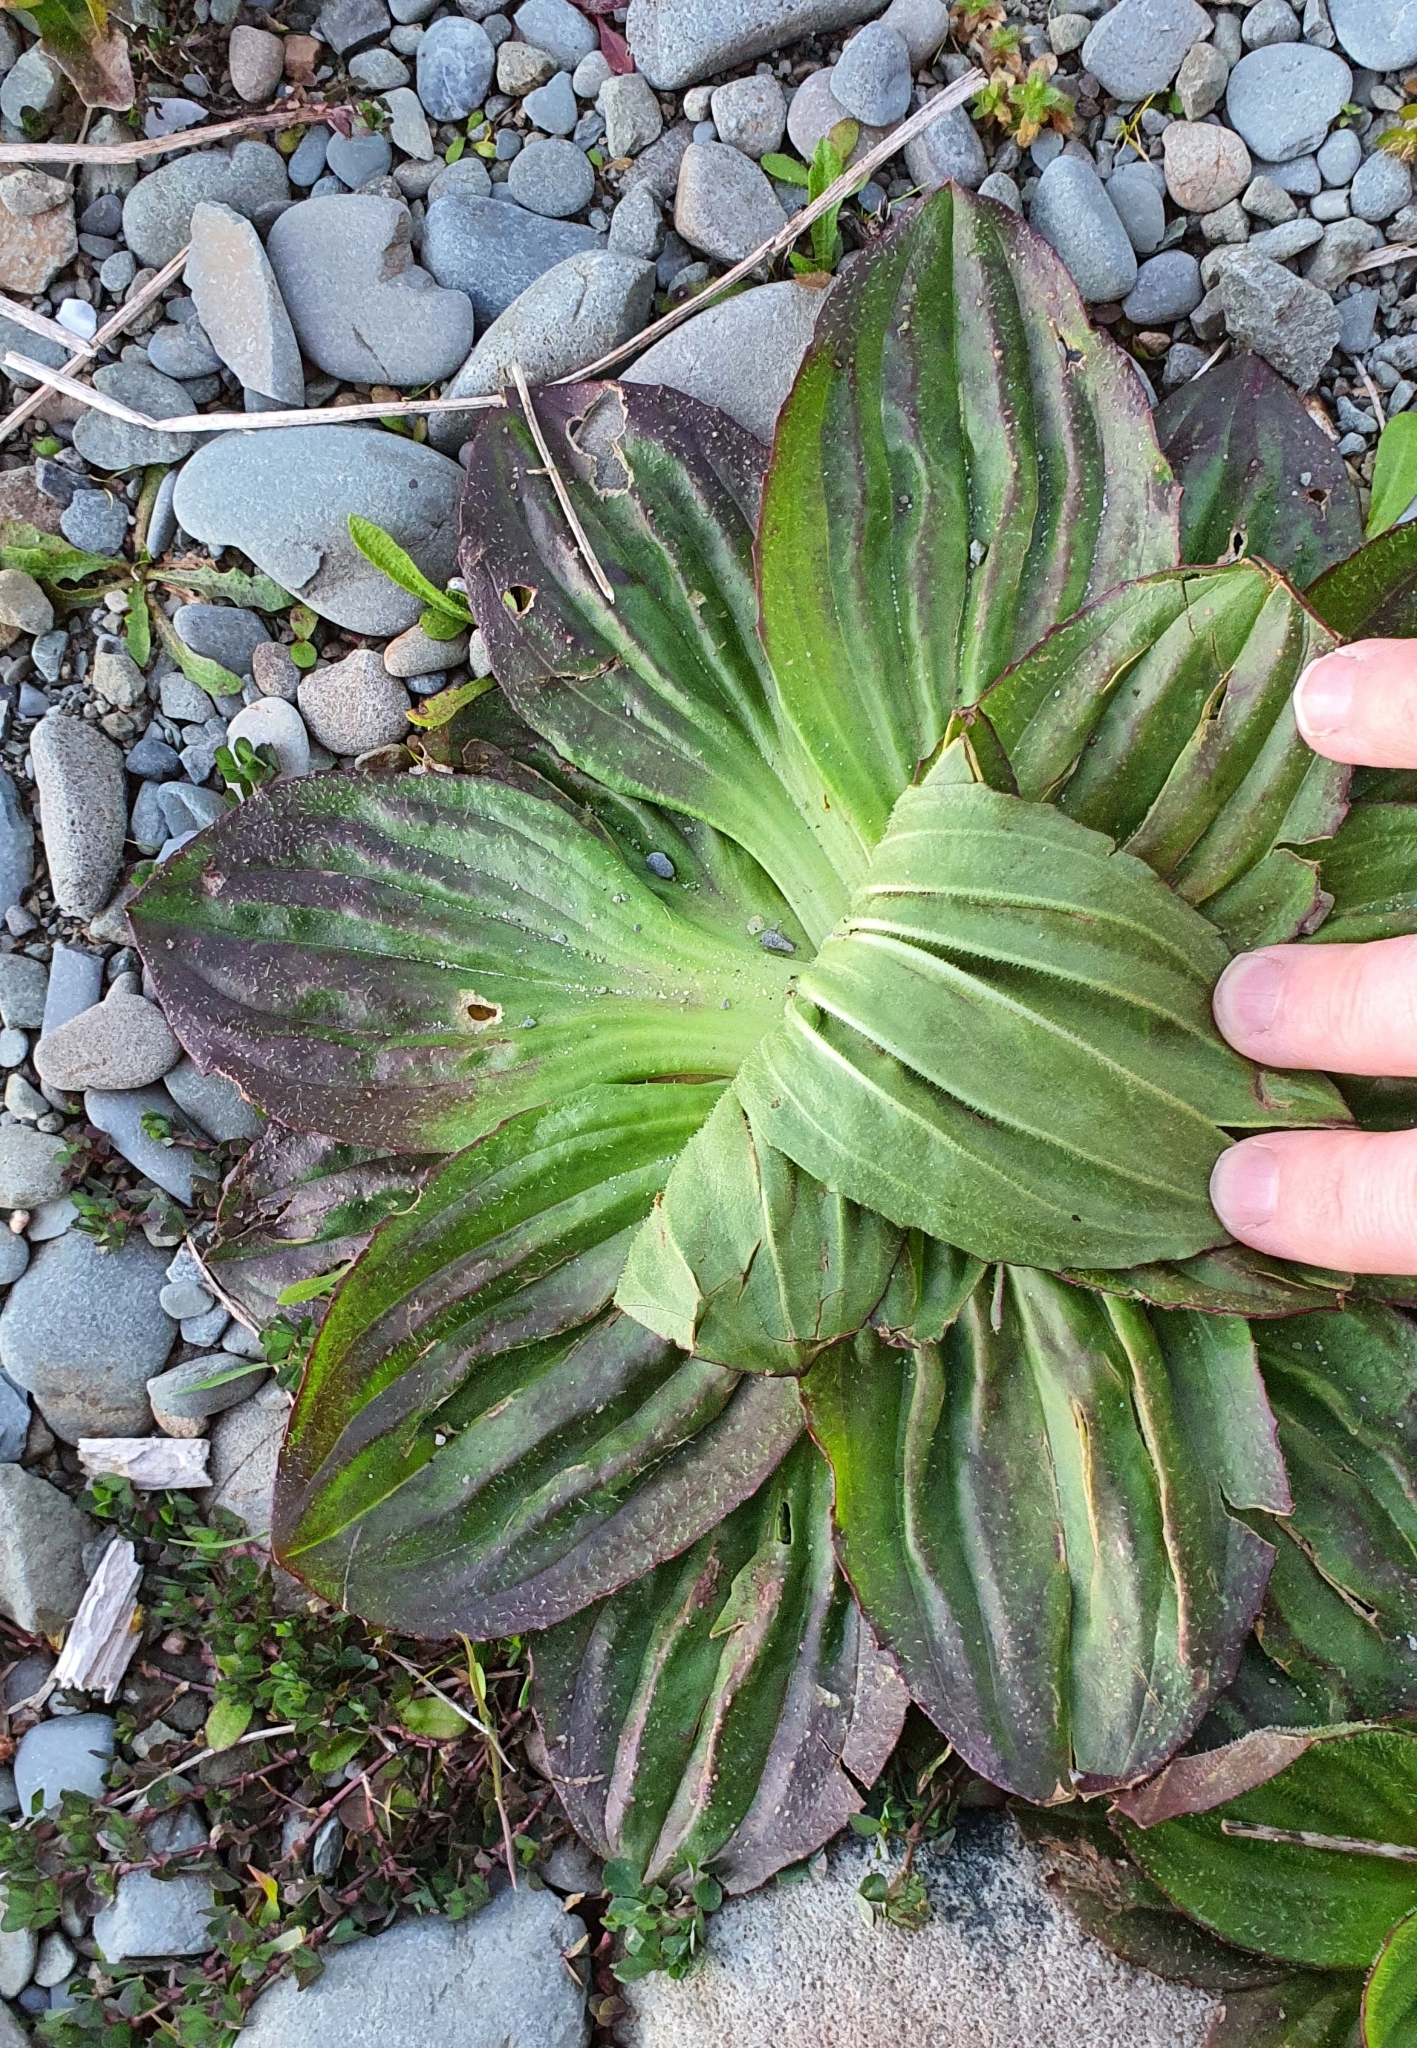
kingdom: Plantae
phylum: Tracheophyta
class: Magnoliopsida
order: Lamiales
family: Plantaginaceae
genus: Plantago
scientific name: Plantago australis
